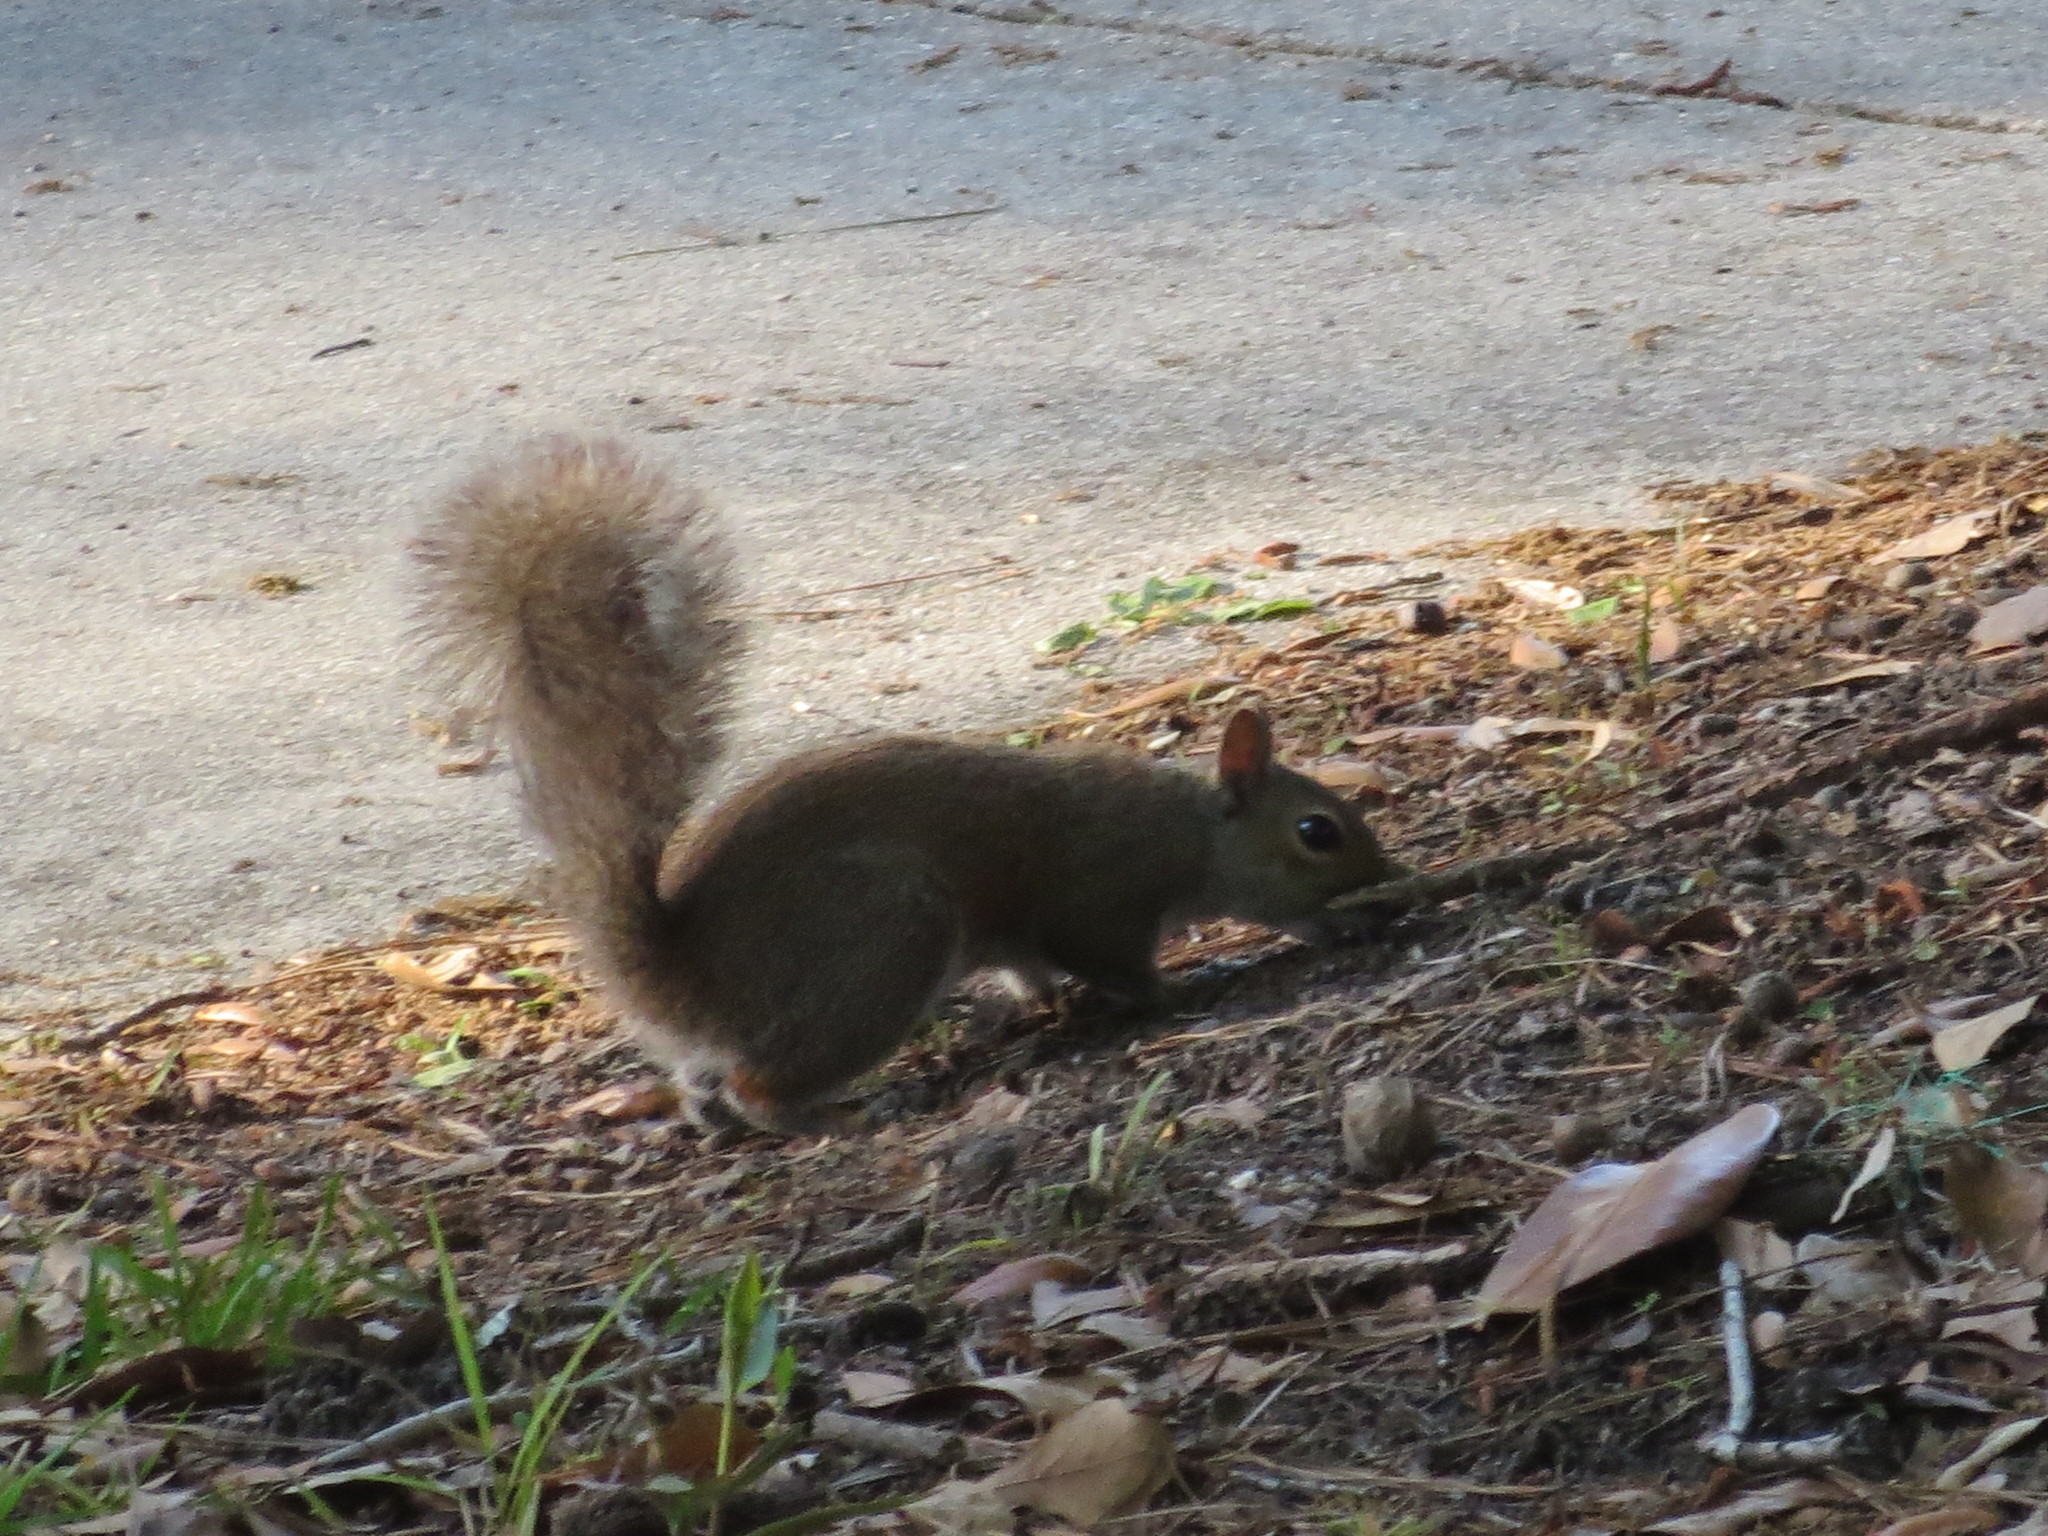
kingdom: Animalia
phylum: Chordata
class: Mammalia
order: Rodentia
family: Sciuridae
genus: Sciurus
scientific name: Sciurus carolinensis
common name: Eastern gray squirrel
